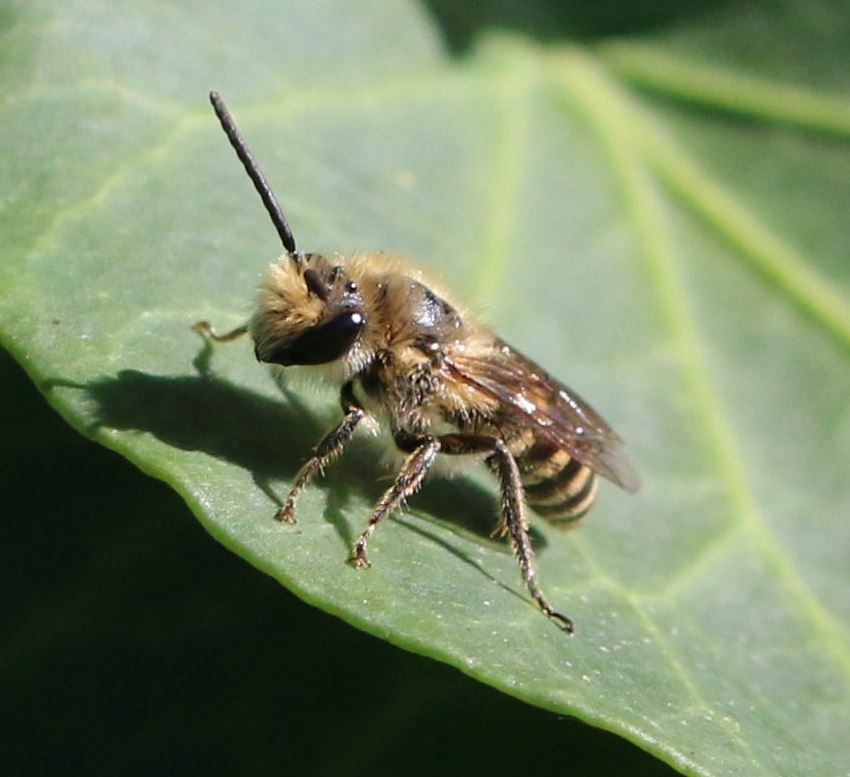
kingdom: Animalia
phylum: Arthropoda
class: Insecta
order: Hymenoptera
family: Colletidae
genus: Colletes
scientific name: Colletes hederae
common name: Ivy bee
